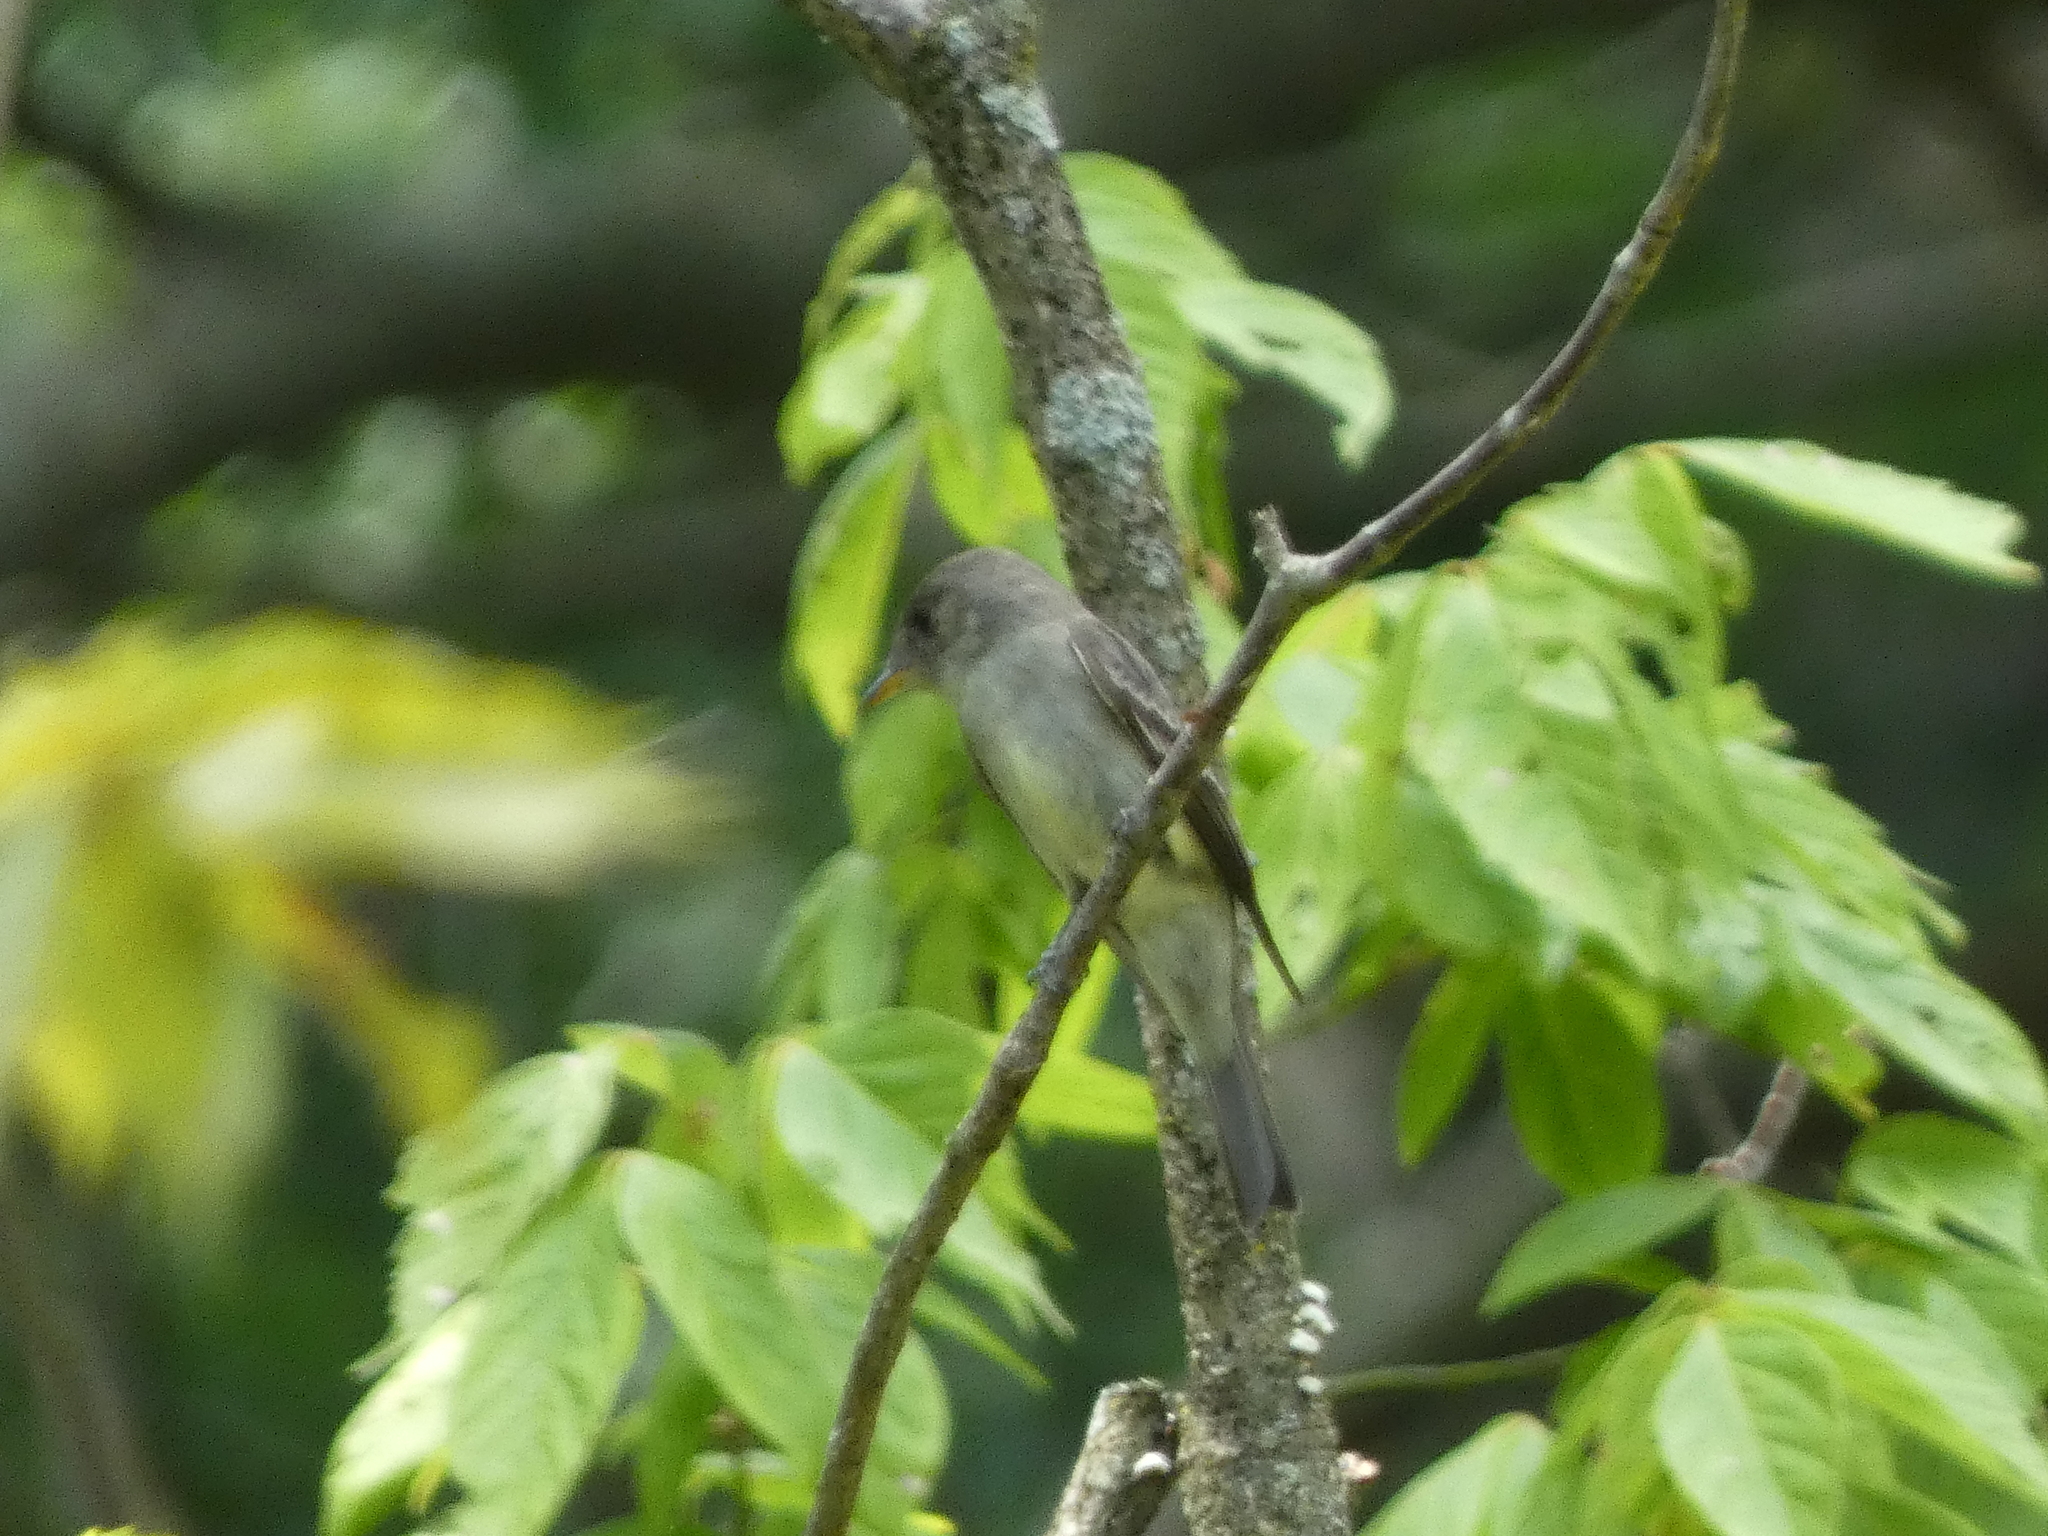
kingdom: Animalia
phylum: Chordata
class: Aves
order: Passeriformes
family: Tyrannidae
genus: Contopus
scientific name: Contopus virens
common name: Eastern wood-pewee
